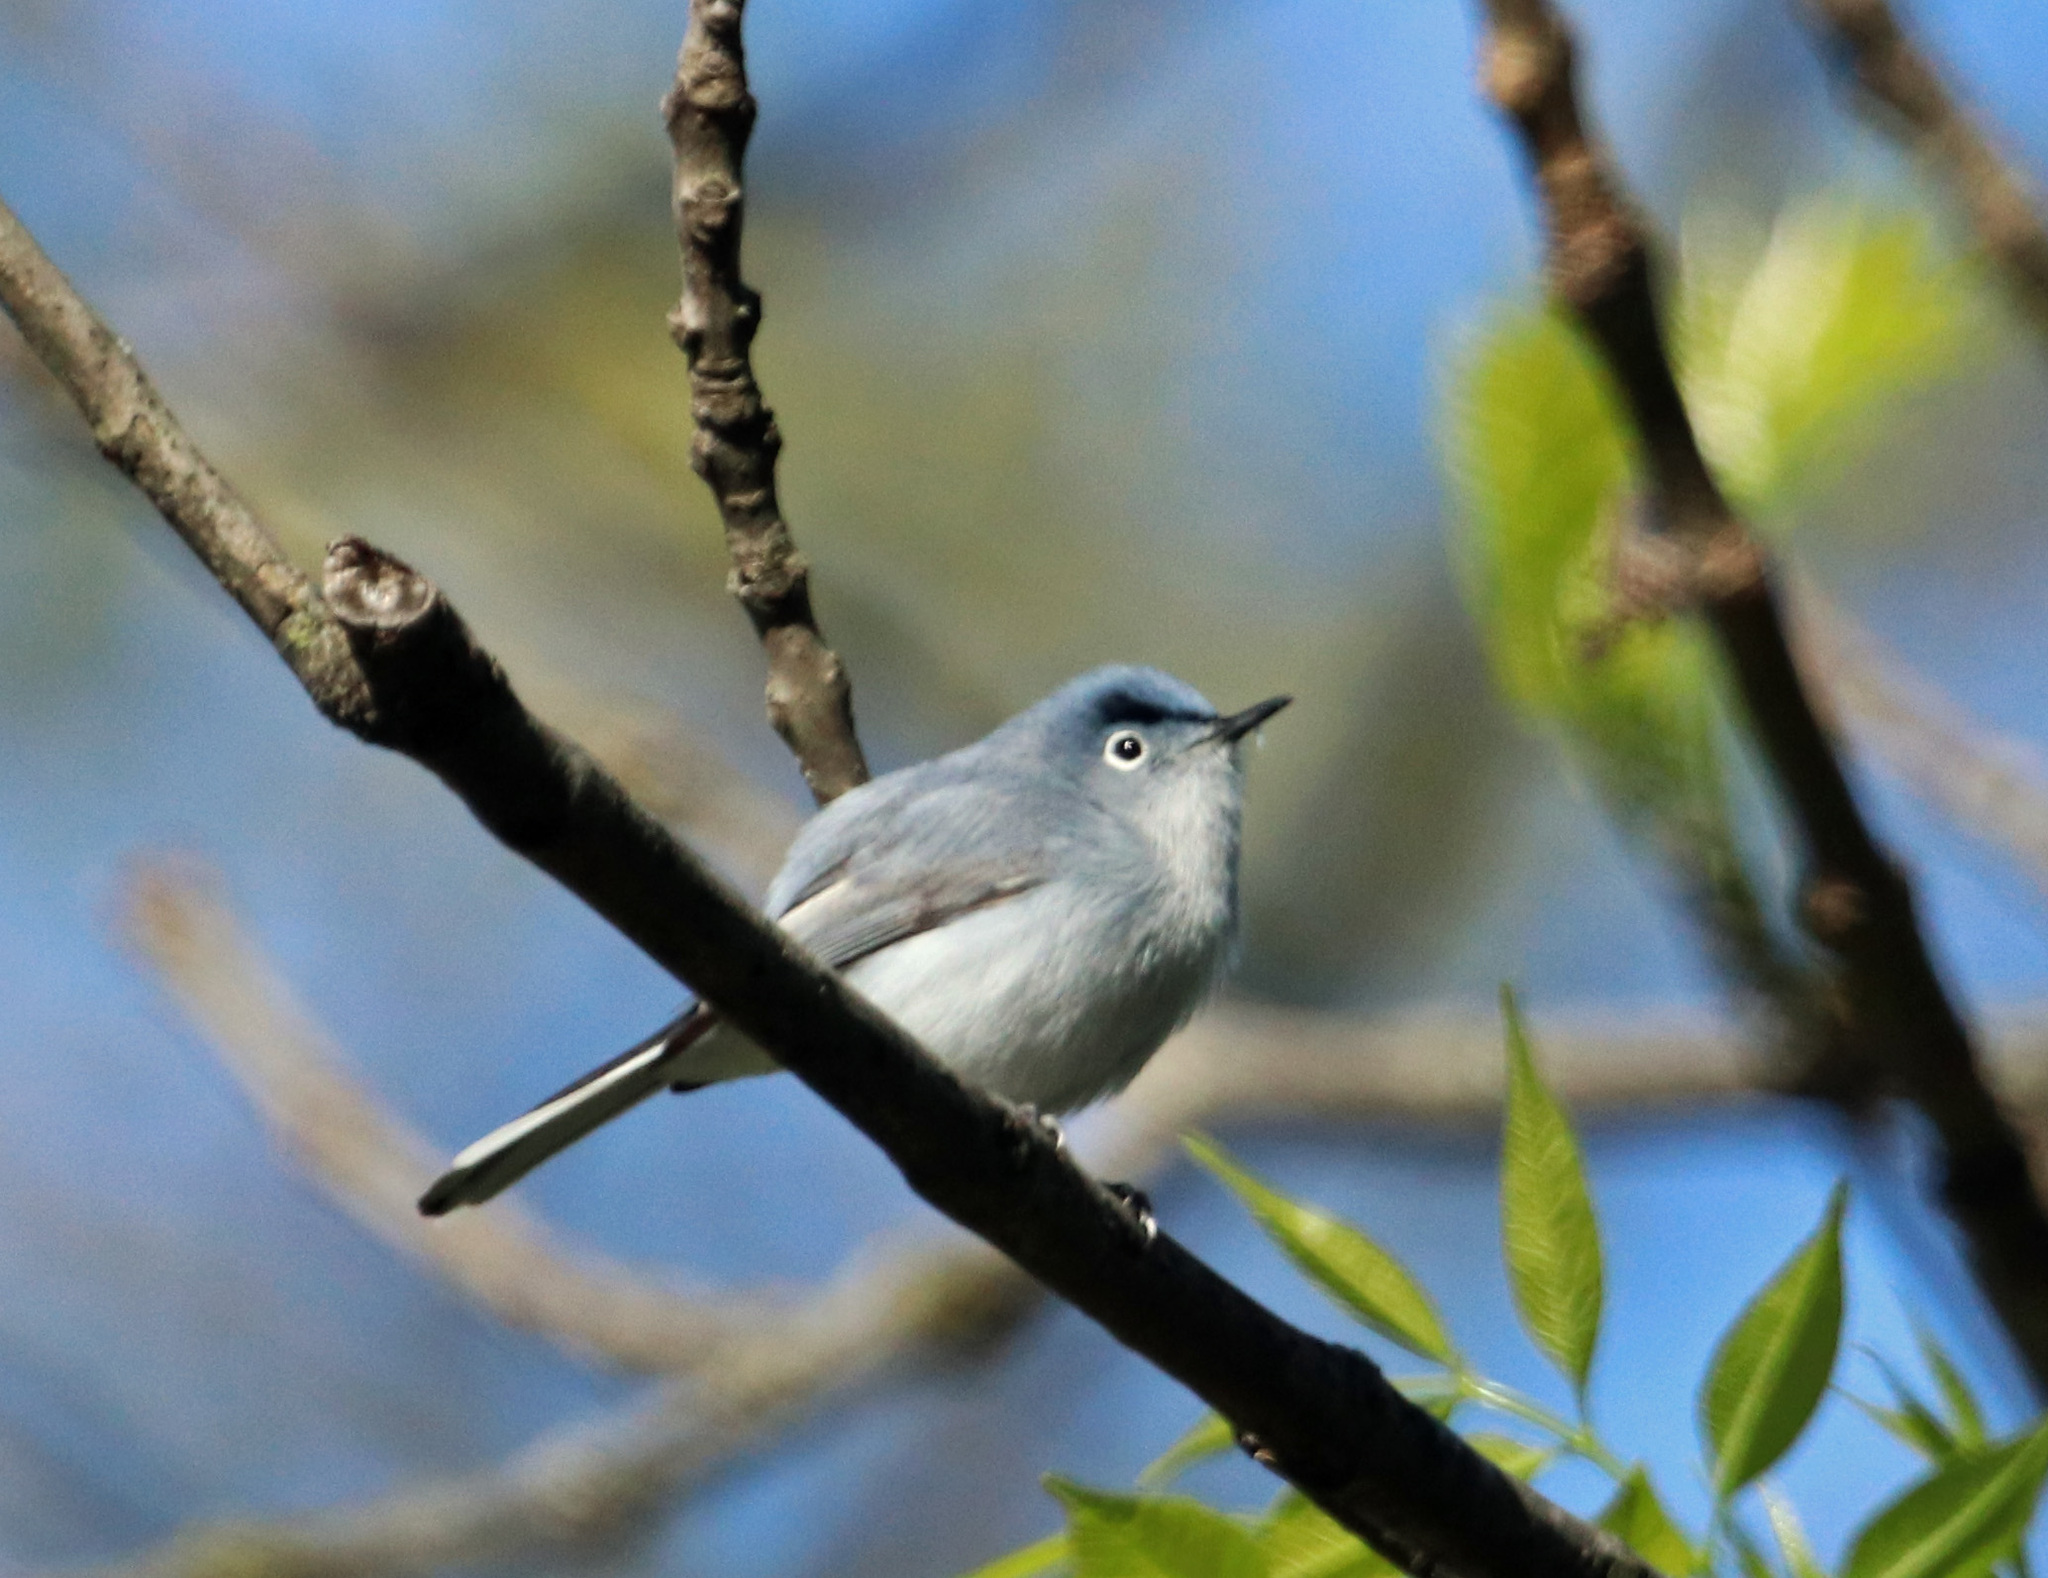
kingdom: Animalia
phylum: Chordata
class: Aves
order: Passeriformes
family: Polioptilidae
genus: Polioptila
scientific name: Polioptila caerulea
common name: Blue-gray gnatcatcher
